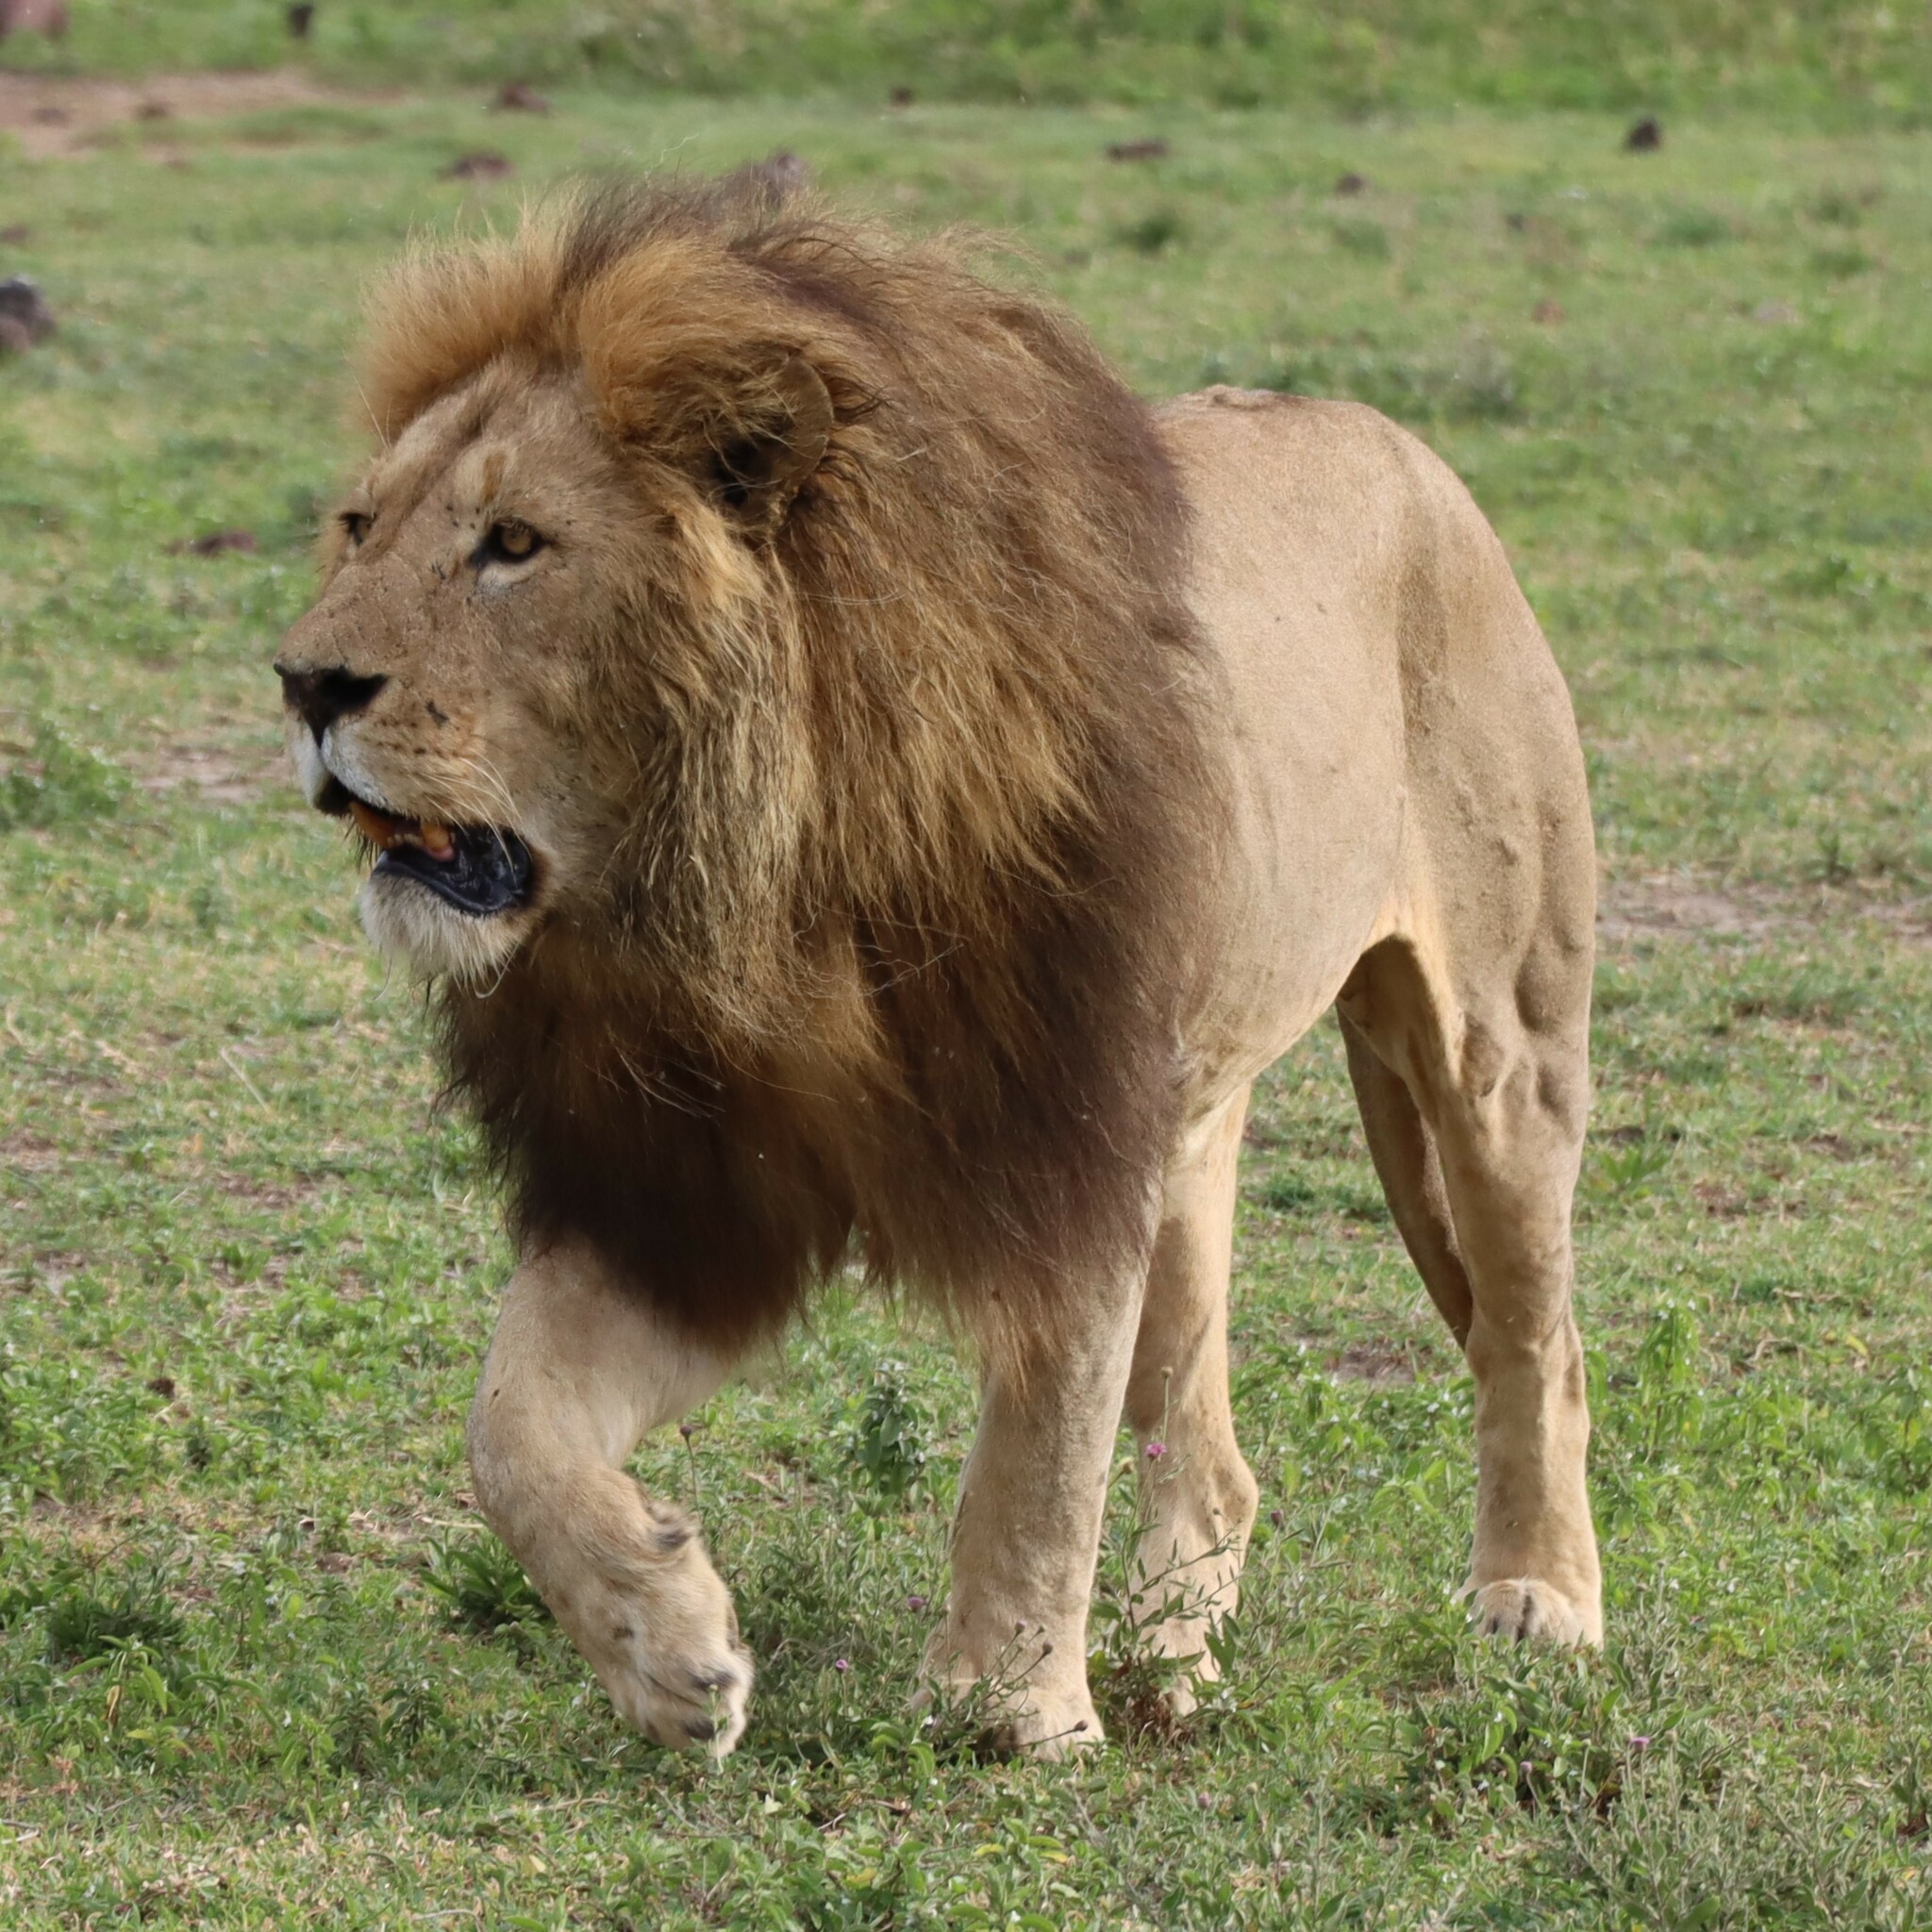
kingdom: Animalia
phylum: Chordata
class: Mammalia
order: Carnivora
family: Felidae
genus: Panthera
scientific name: Panthera leo
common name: Lion
